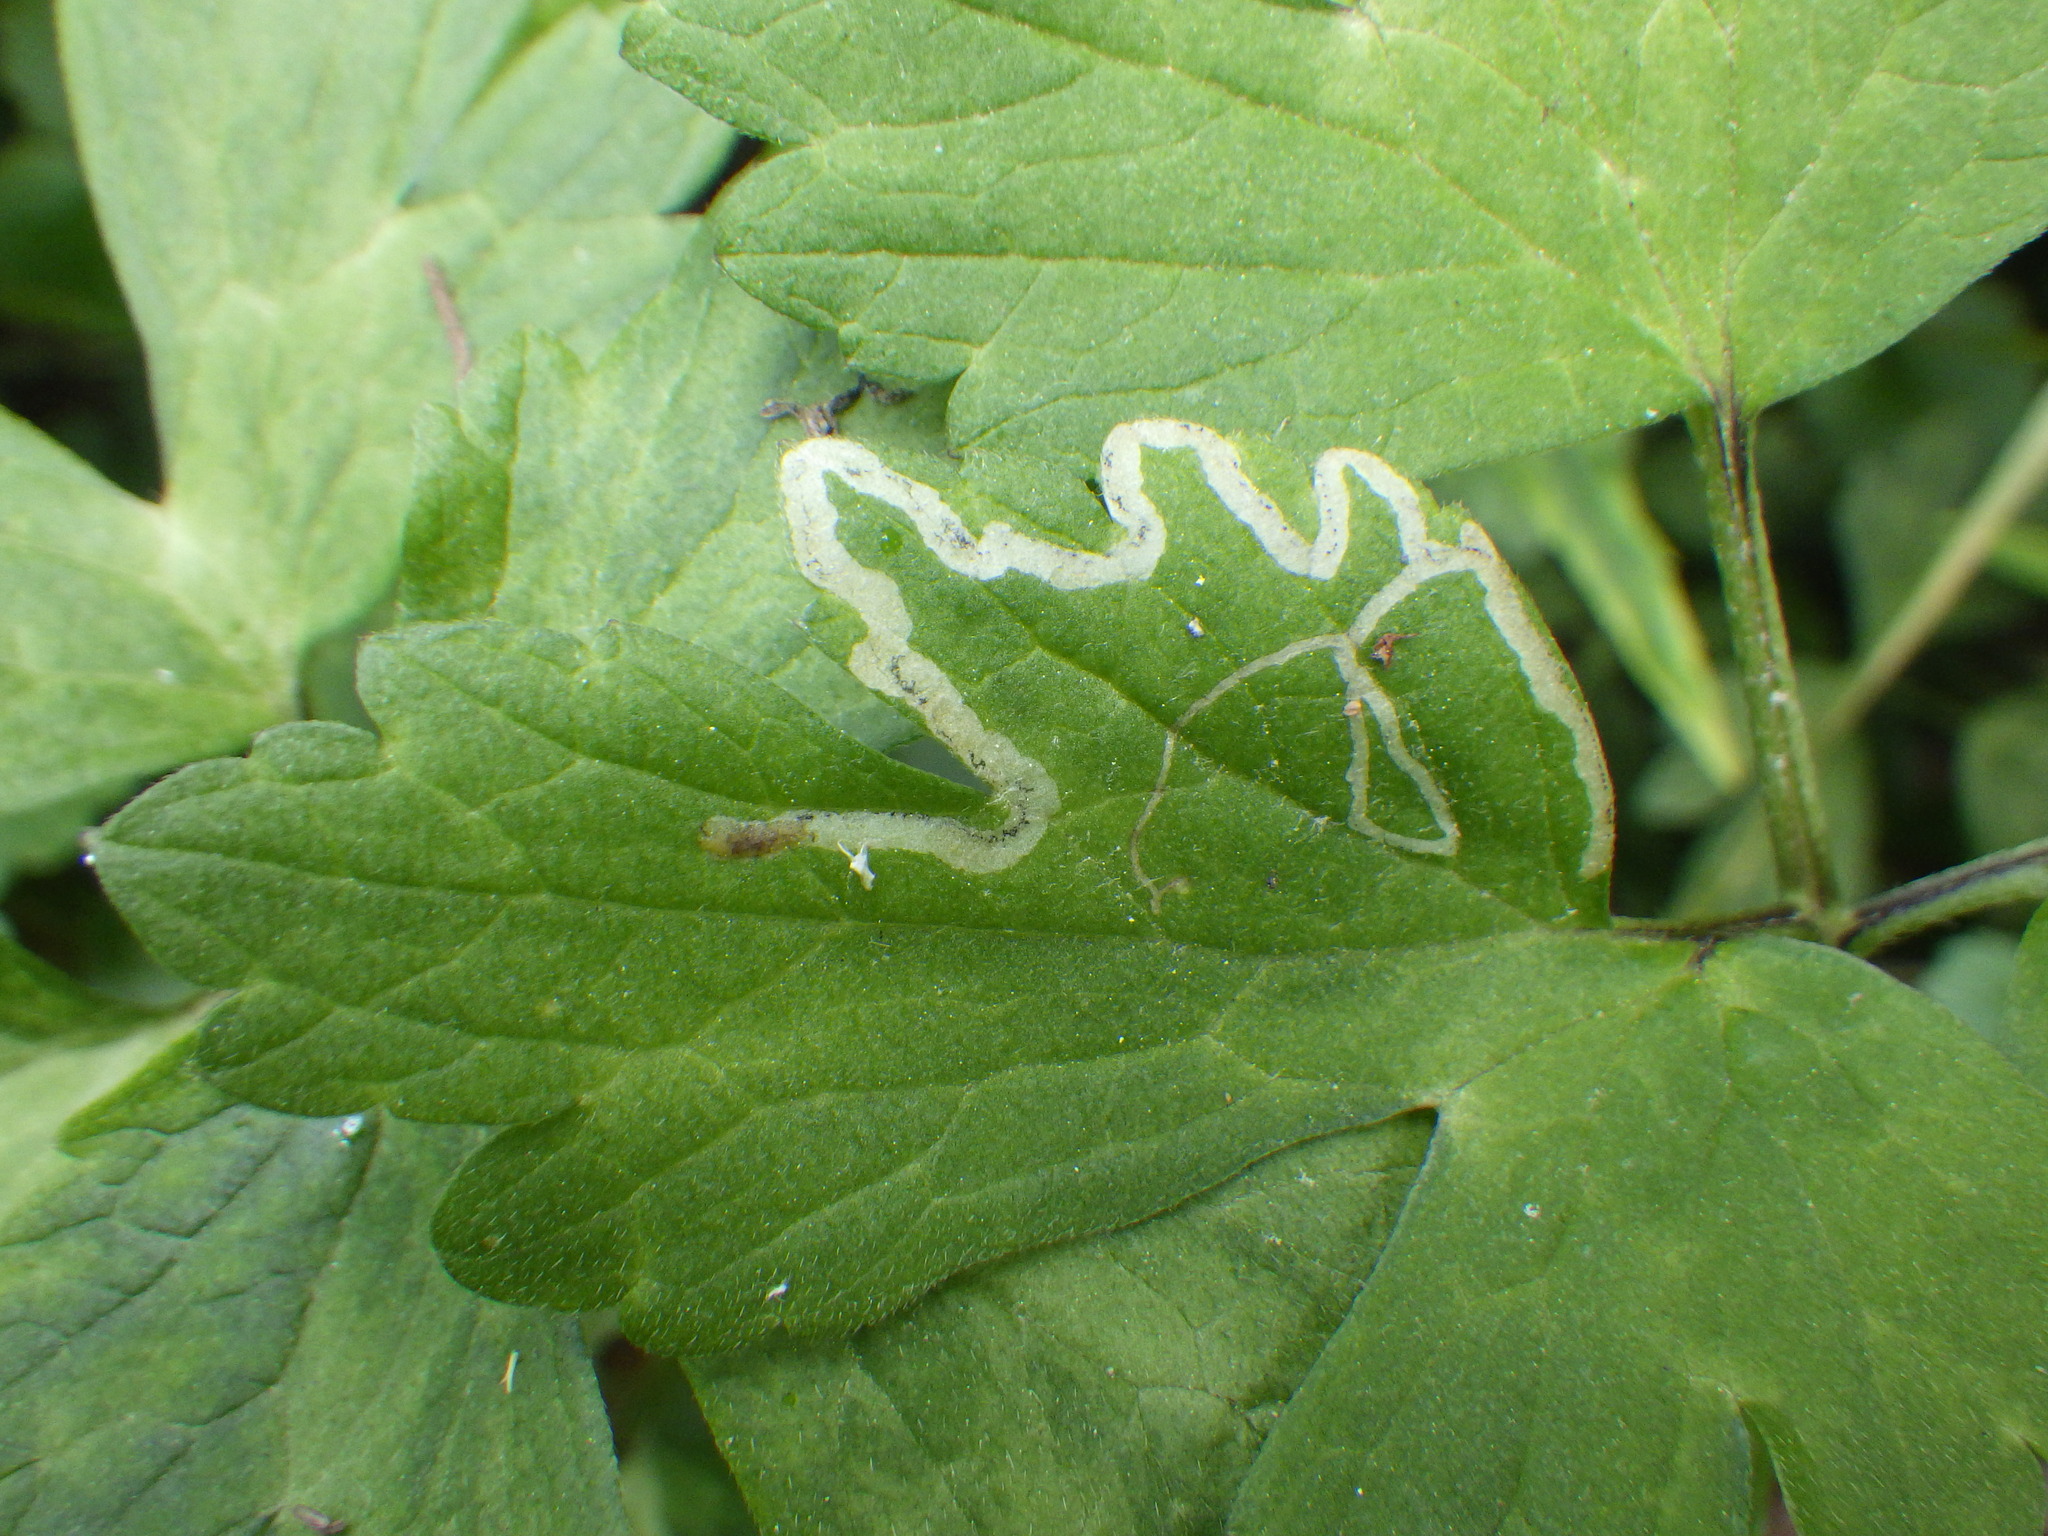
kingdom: Animalia
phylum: Arthropoda
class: Insecta
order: Diptera
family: Agromyzidae
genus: Phytomyza
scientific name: Phytomyza ranunculi
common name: Leaf-miner fly
